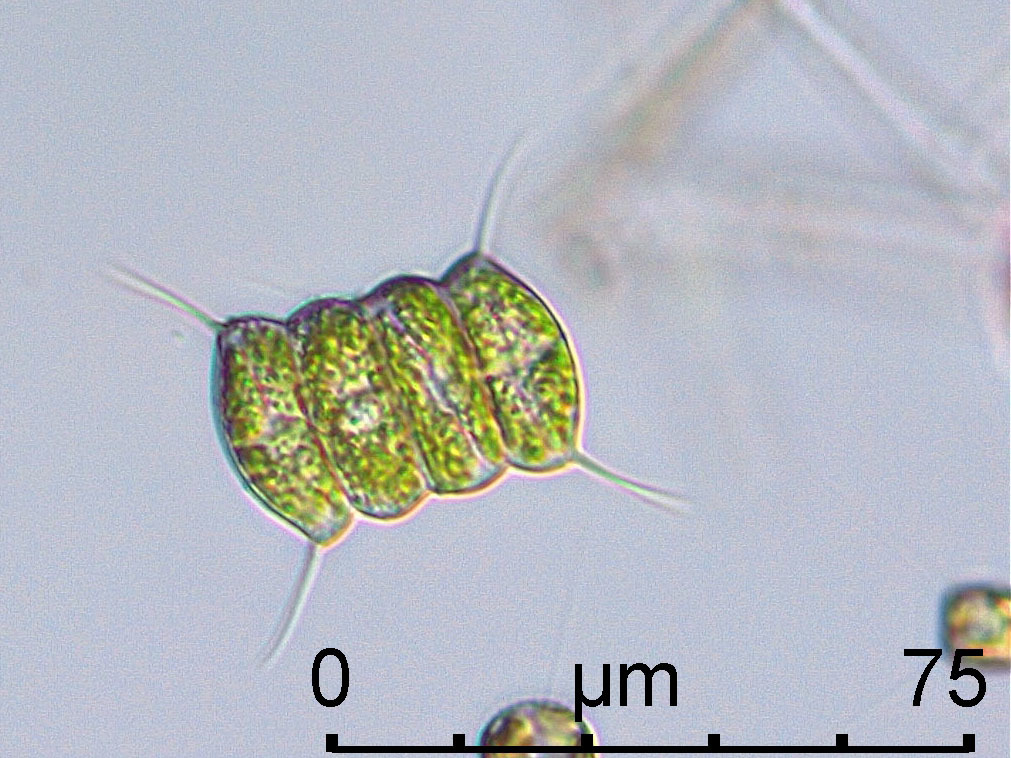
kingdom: Plantae
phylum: Chlorophyta
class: Chlorophyceae
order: Sphaeropleales
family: Scenedesmaceae
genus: Desmodesmus
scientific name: Desmodesmus communis
